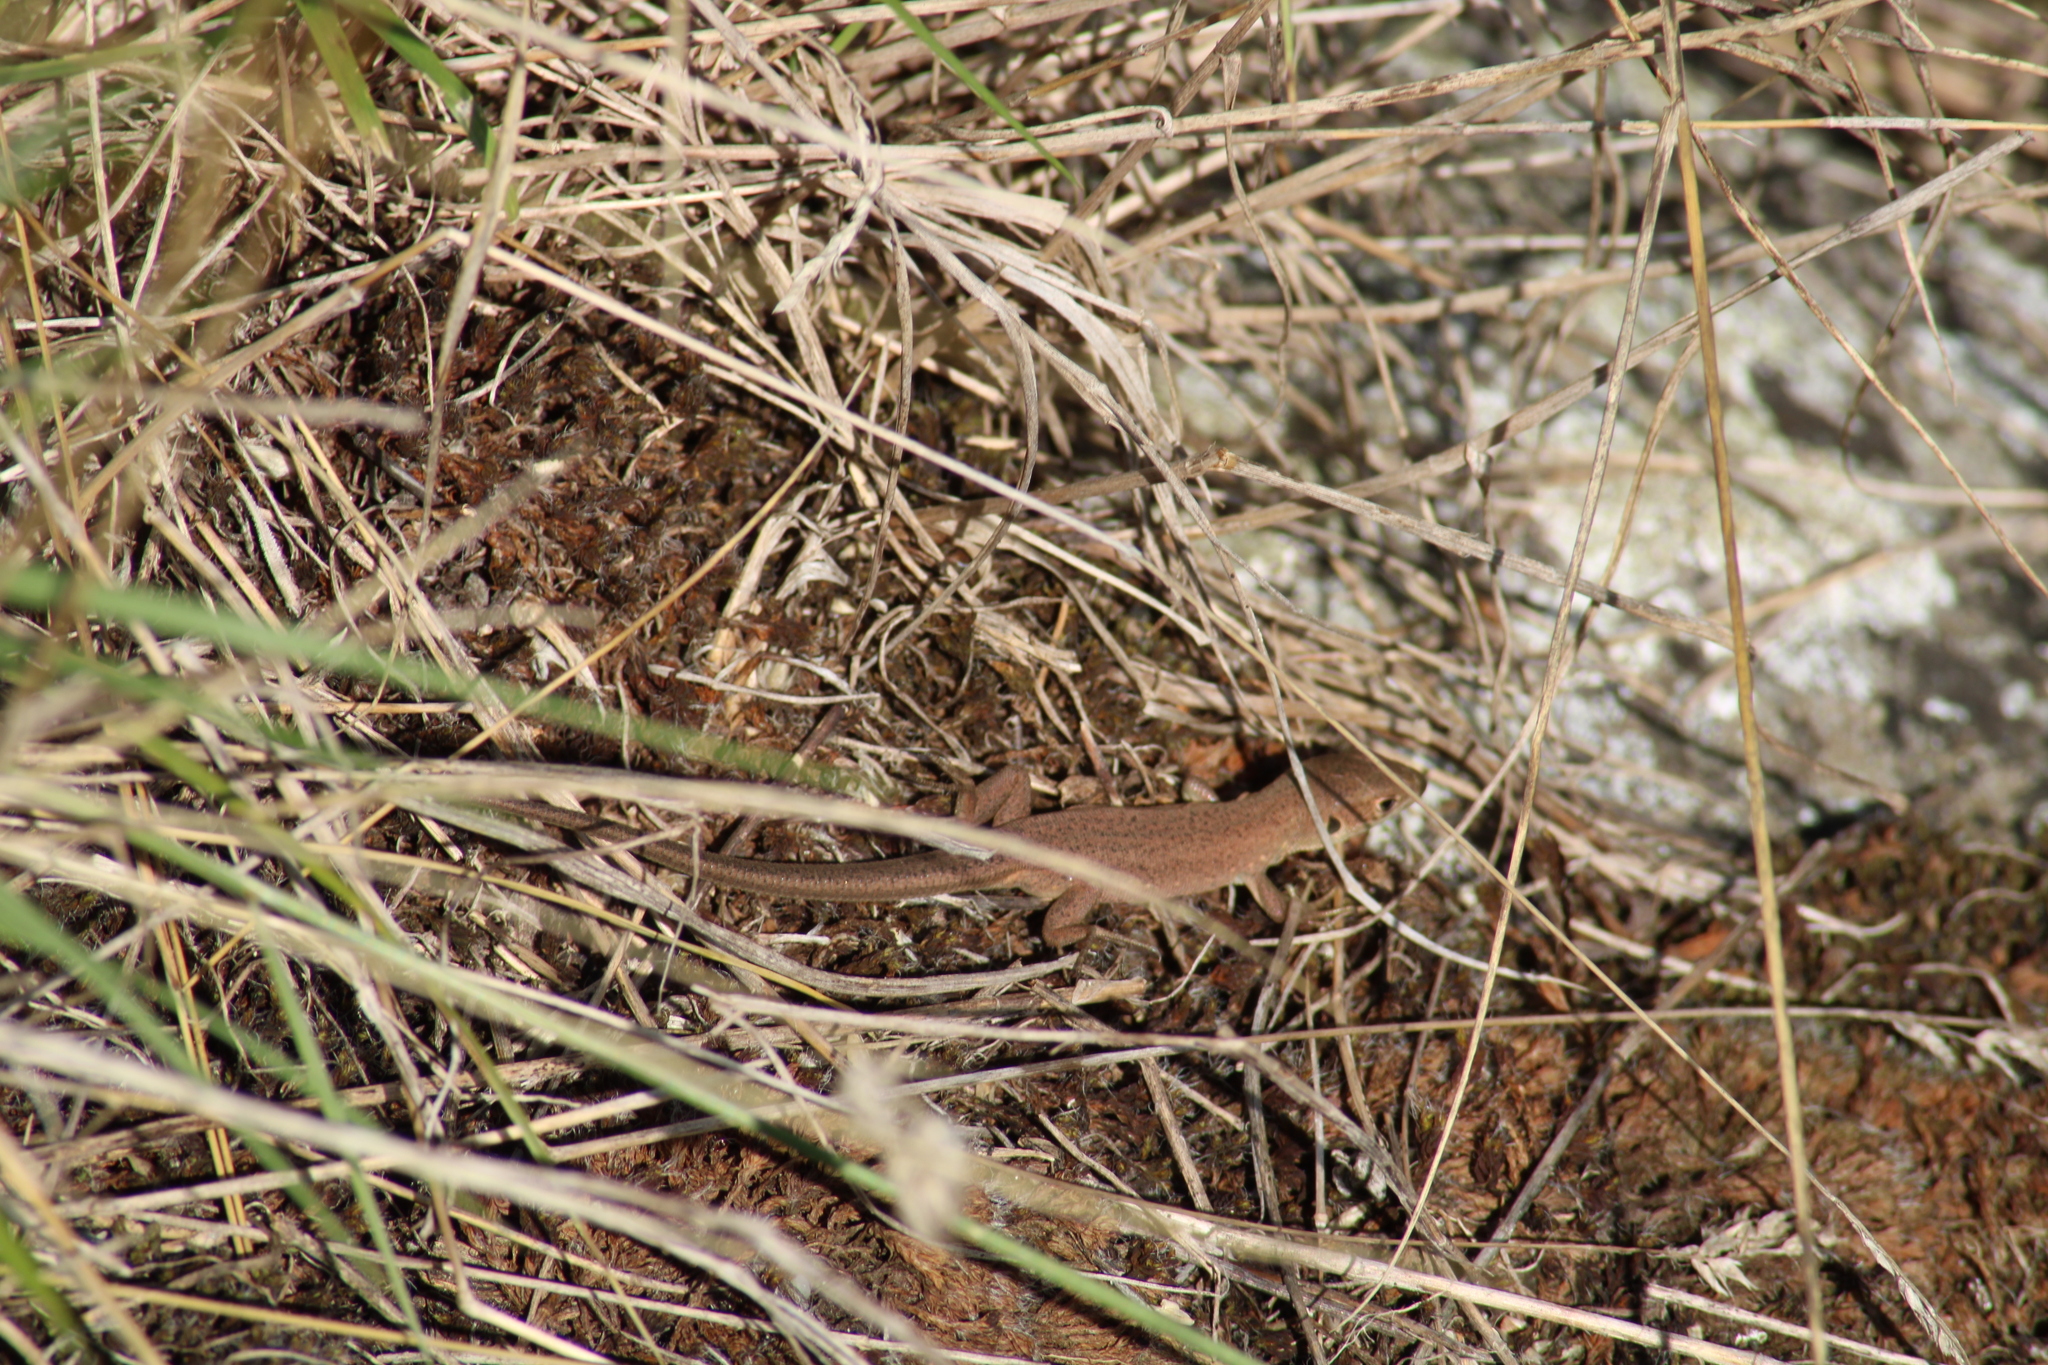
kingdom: Animalia
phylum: Chordata
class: Squamata
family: Lacertidae
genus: Lacerta
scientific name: Lacerta viridis
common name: European green lizard
